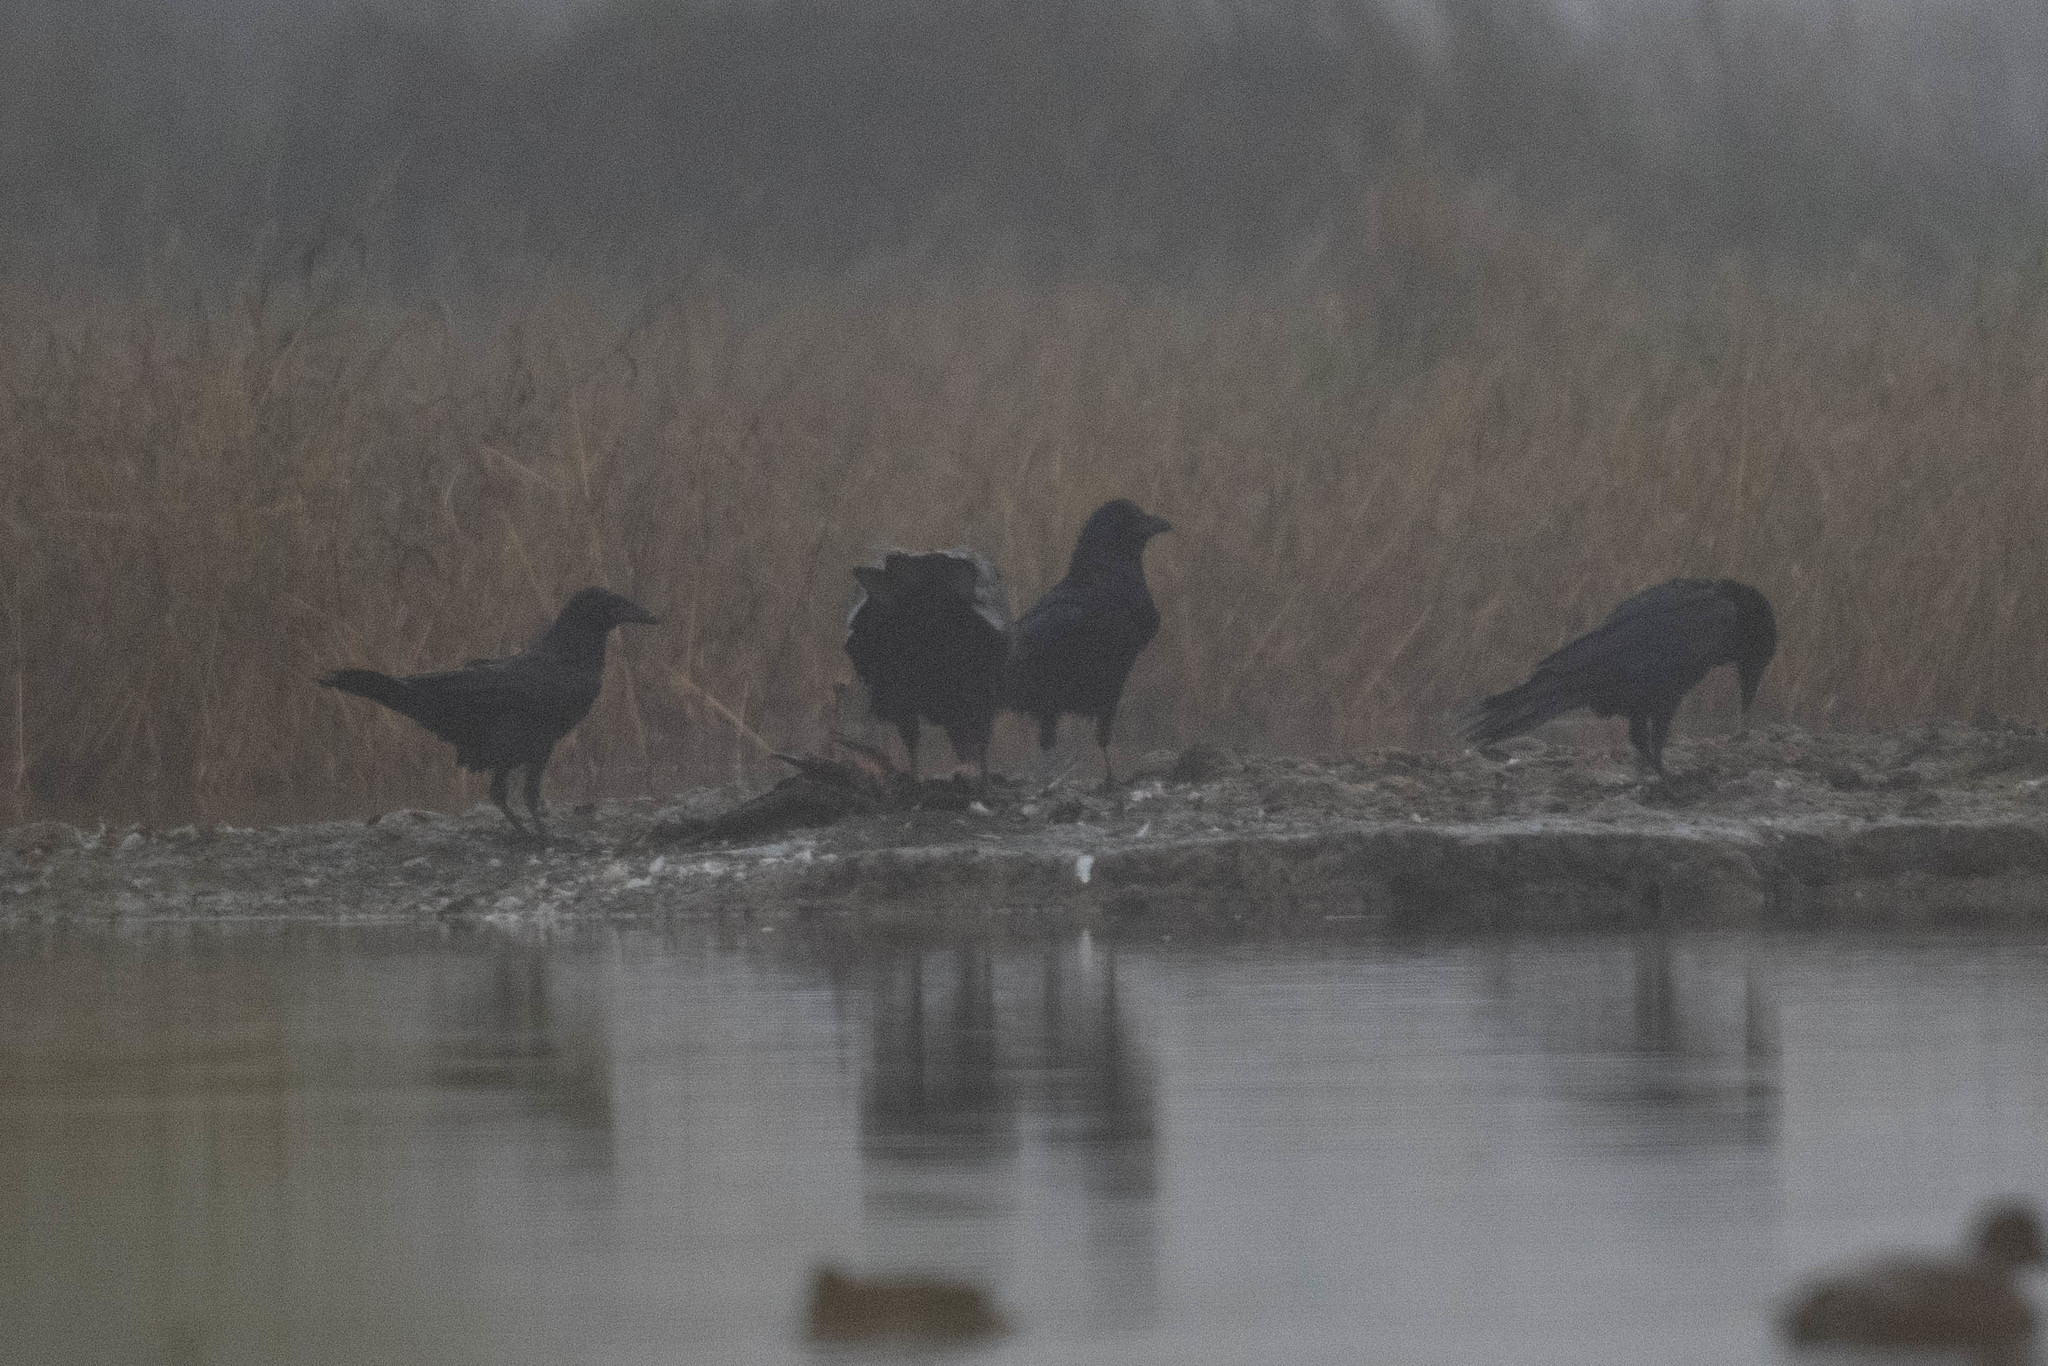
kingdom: Animalia
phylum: Chordata
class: Aves
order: Passeriformes
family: Corvidae
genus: Corvus
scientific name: Corvus brachyrhynchos
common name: American crow
